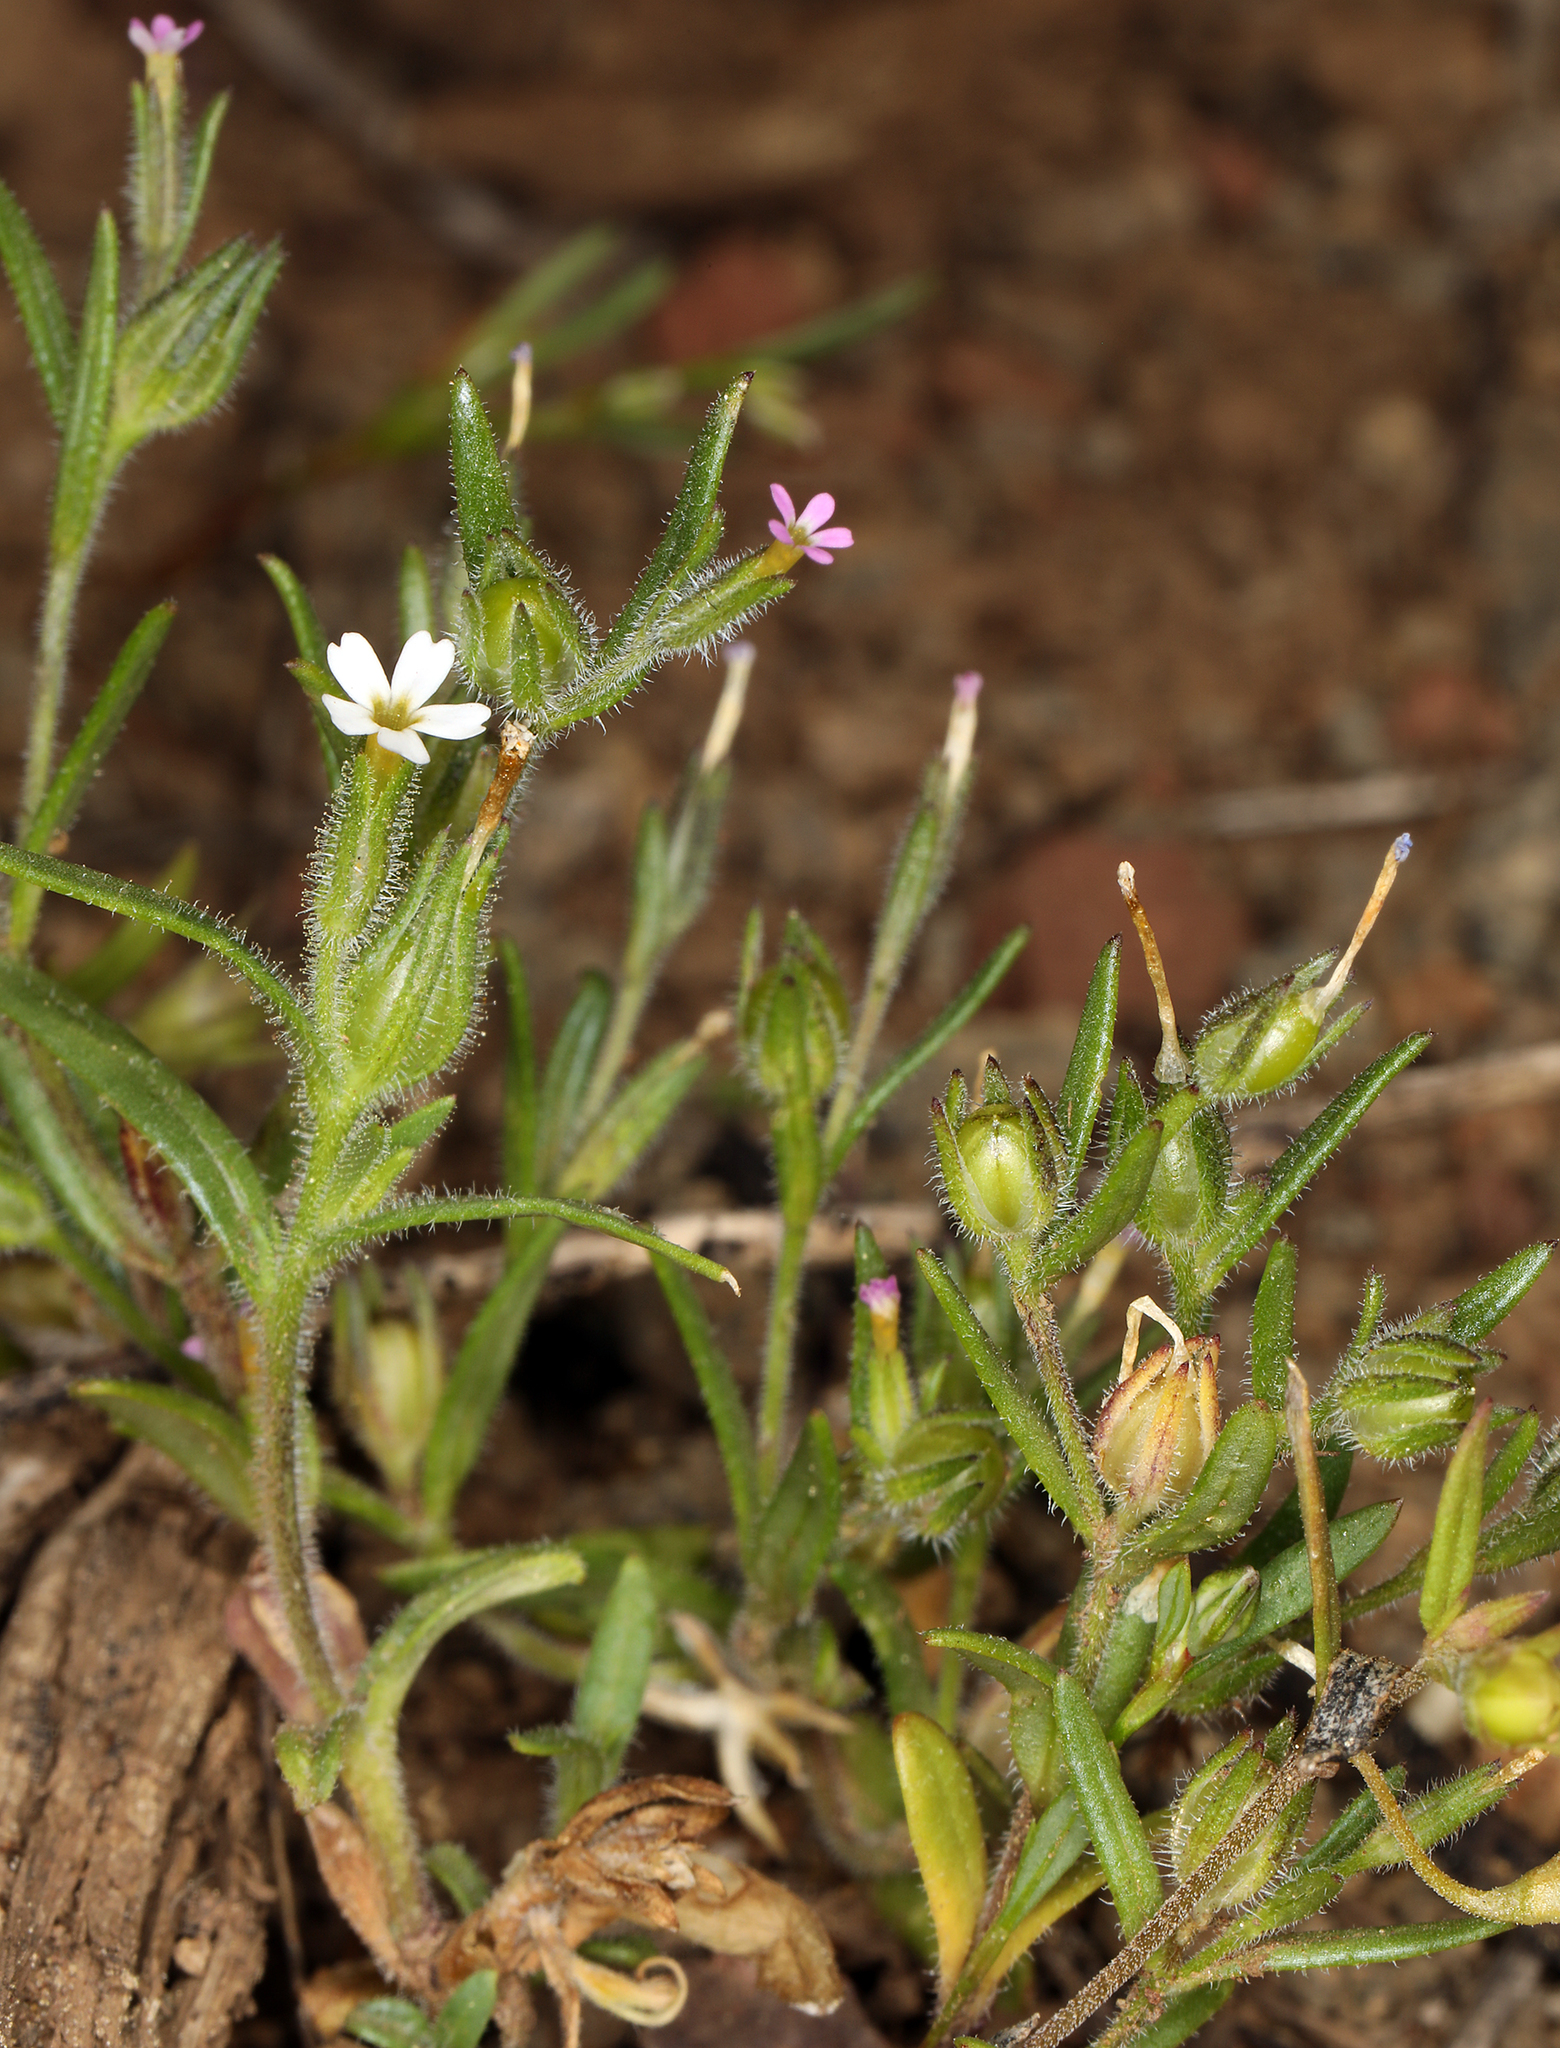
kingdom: Plantae
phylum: Tracheophyta
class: Magnoliopsida
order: Ericales
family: Polemoniaceae
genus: Phlox
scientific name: Phlox gracilis
